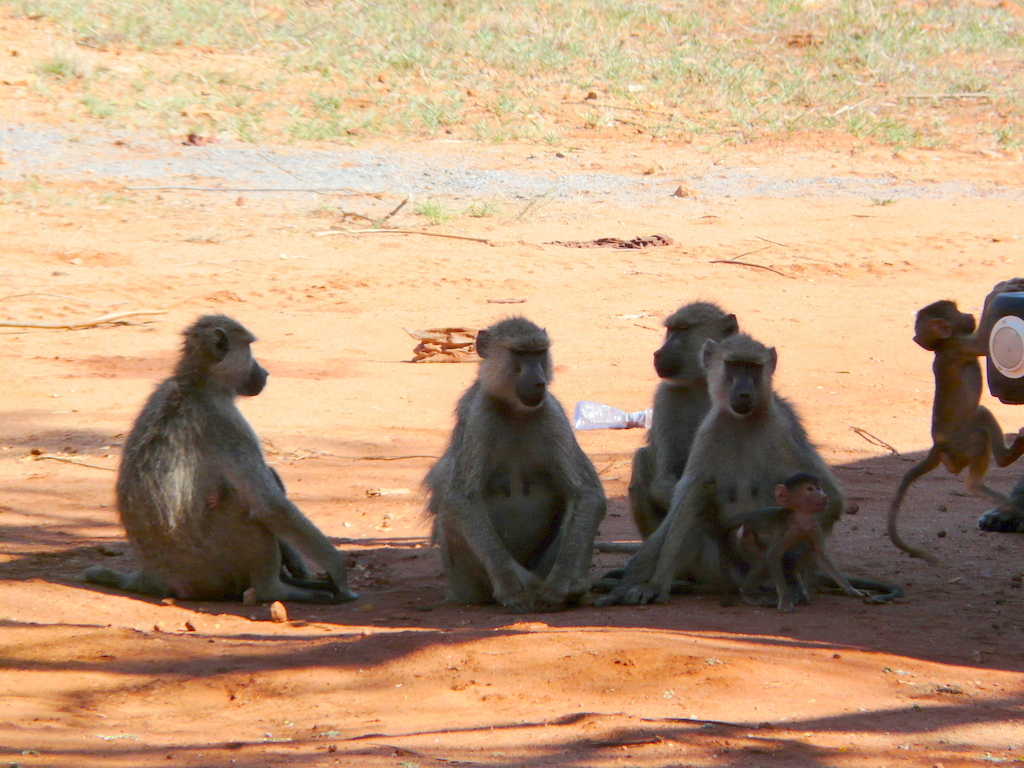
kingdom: Animalia
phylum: Chordata
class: Mammalia
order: Primates
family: Cercopithecidae
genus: Papio
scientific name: Papio cynocephalus
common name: Yellow baboon
